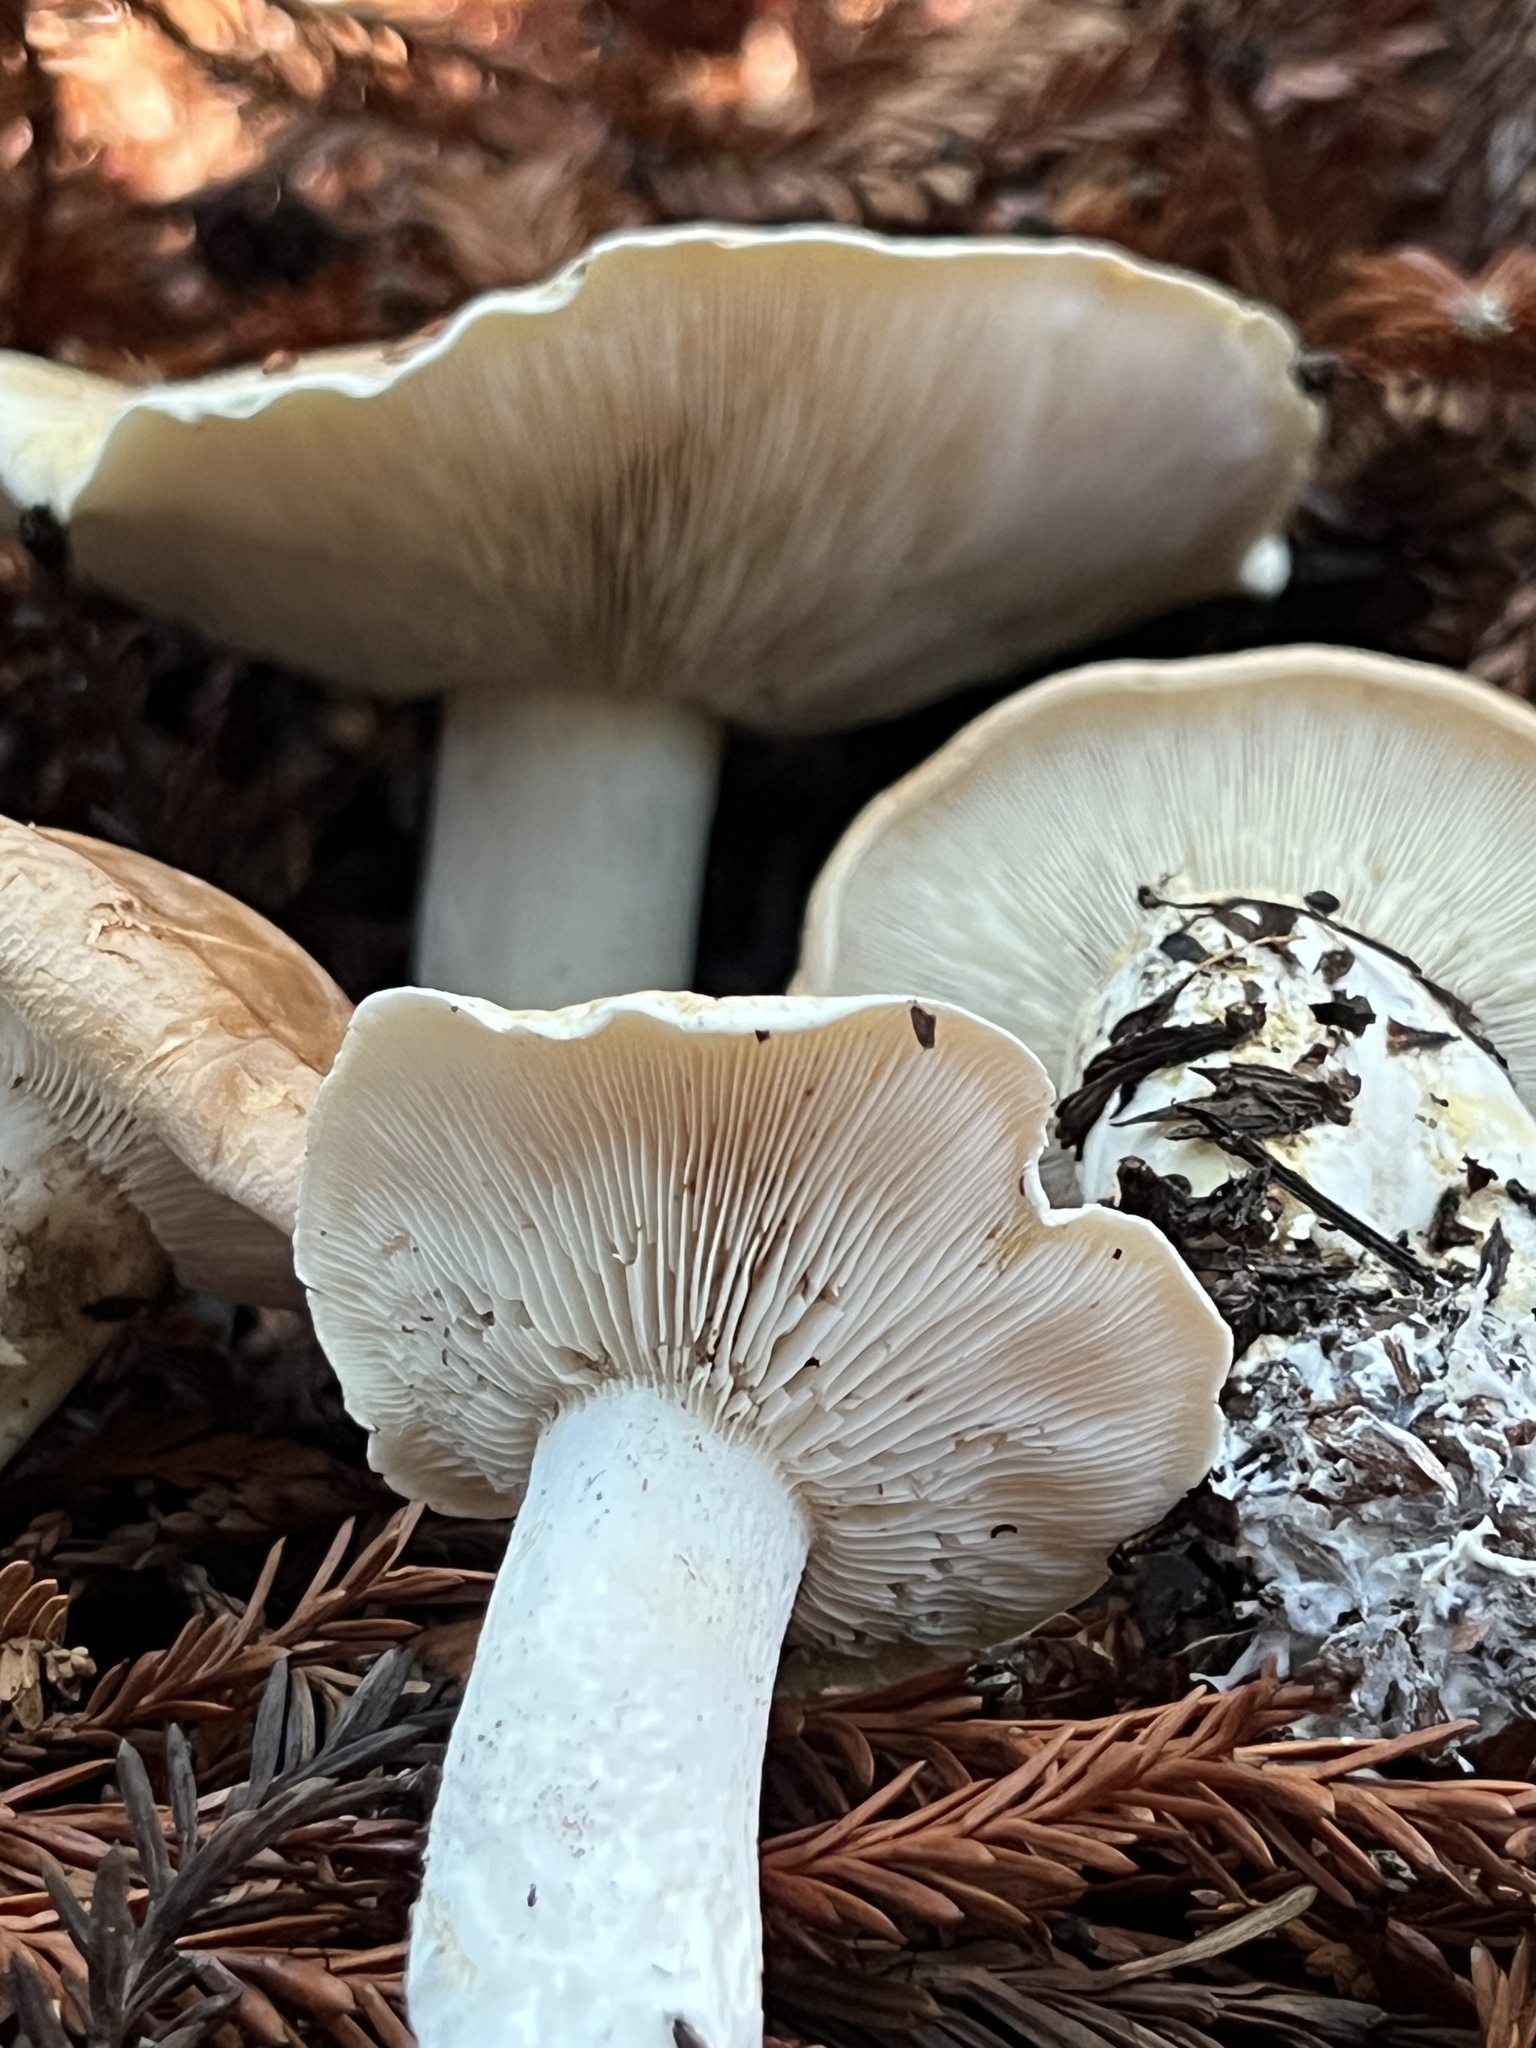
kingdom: Fungi
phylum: Basidiomycota
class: Agaricomycetes
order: Agaricales
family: Tricholomataceae
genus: Leucopaxillus
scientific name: Leucopaxillus gentianeus
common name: Bitter funnel
